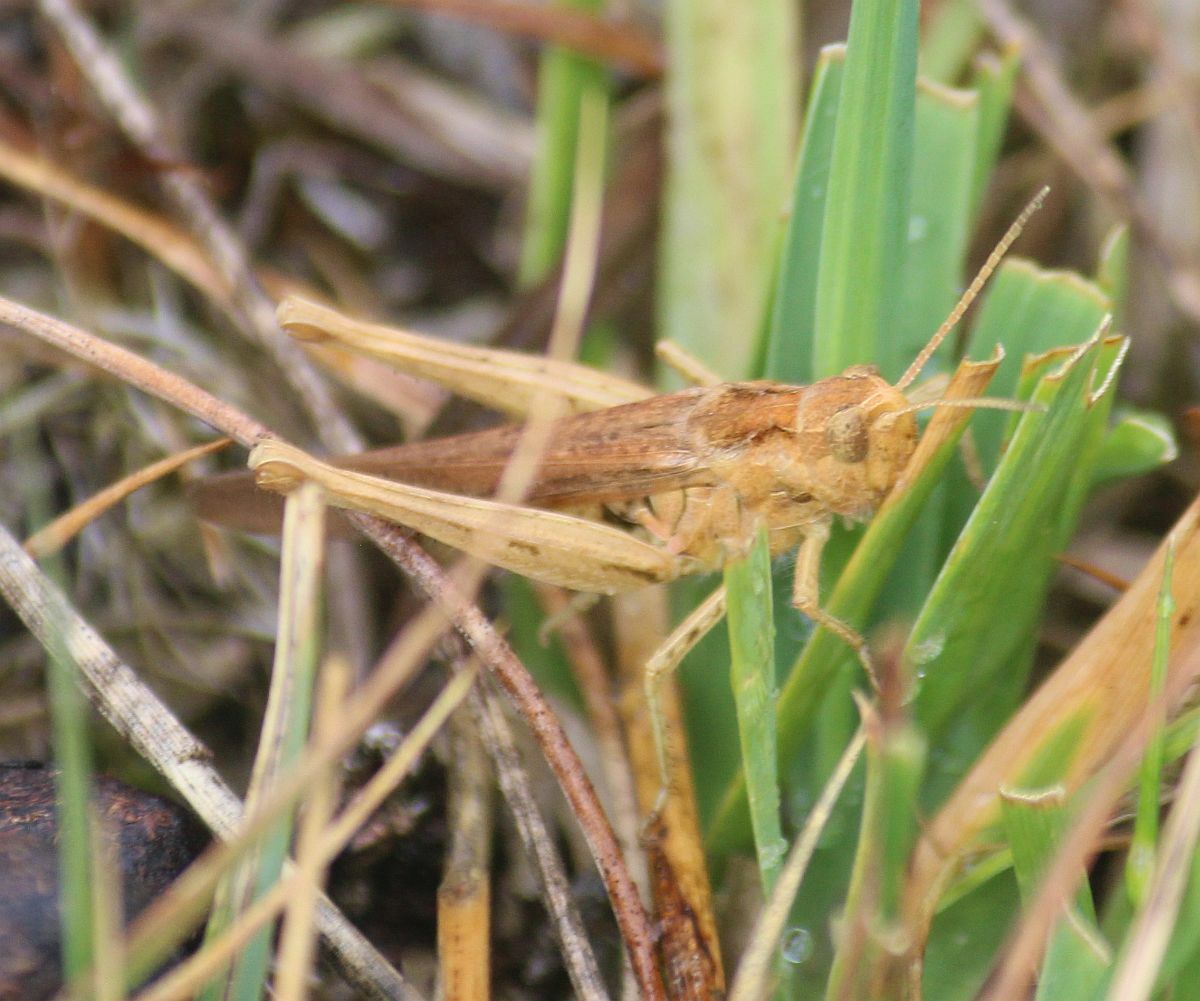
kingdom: Animalia
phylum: Arthropoda
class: Insecta
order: Orthoptera
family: Acrididae
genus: Chorthippus
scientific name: Chorthippus brunneus
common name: Field grasshopper
